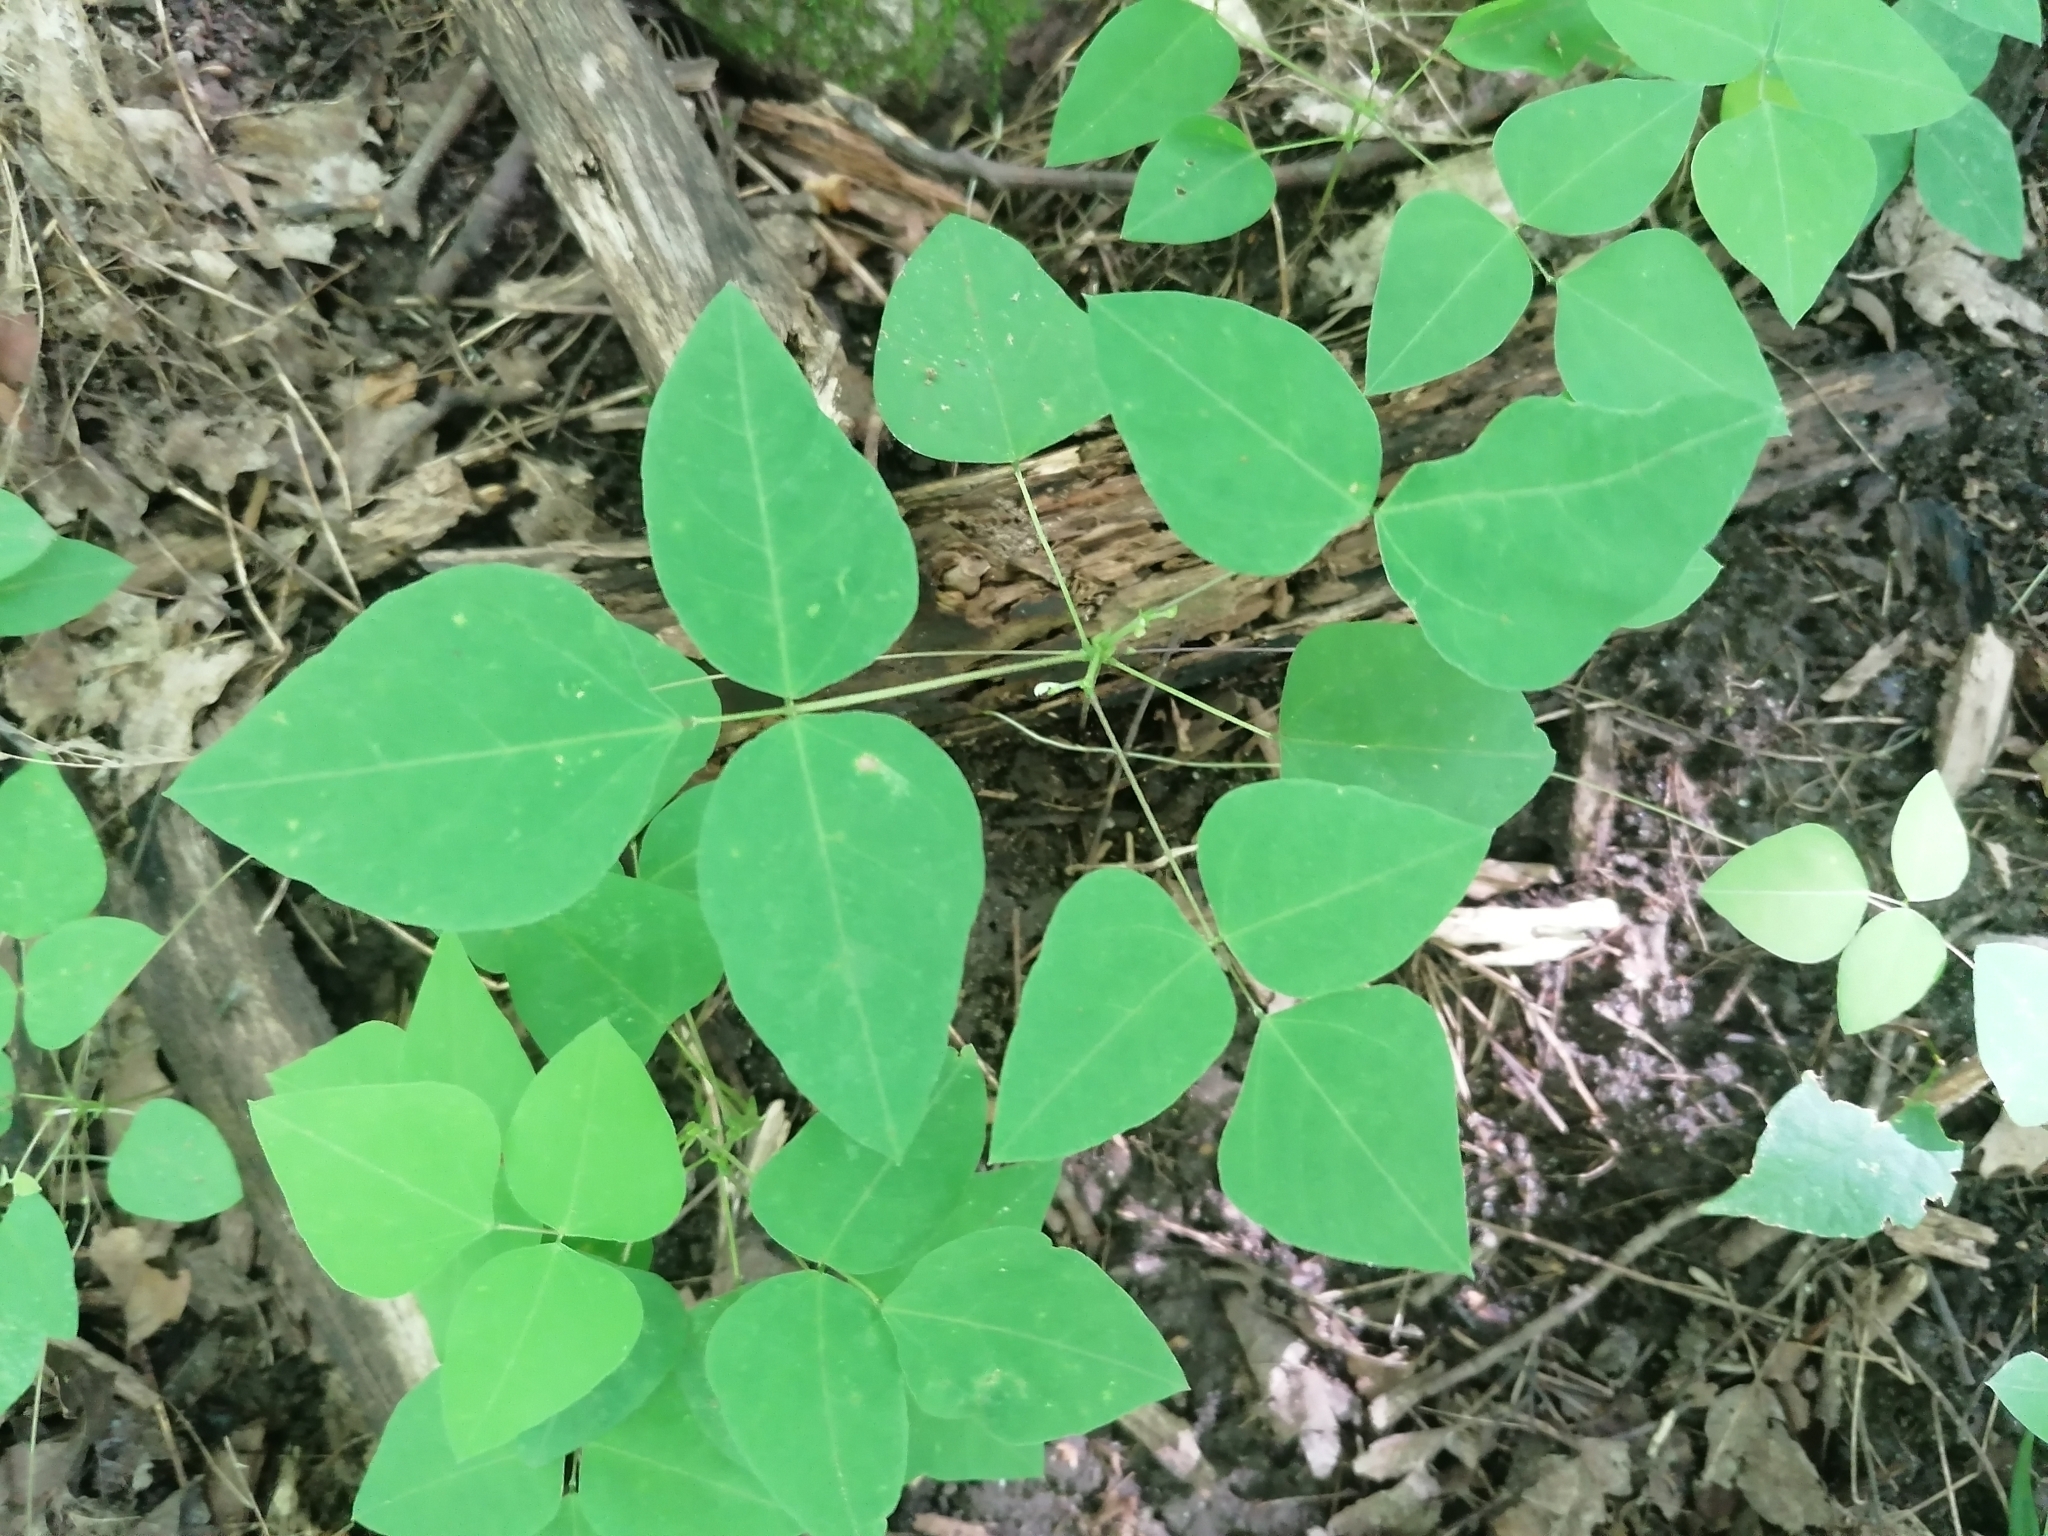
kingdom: Plantae
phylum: Tracheophyta
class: Magnoliopsida
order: Fabales
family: Fabaceae
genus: Amphicarpaea
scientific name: Amphicarpaea bracteata
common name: American hog peanut
